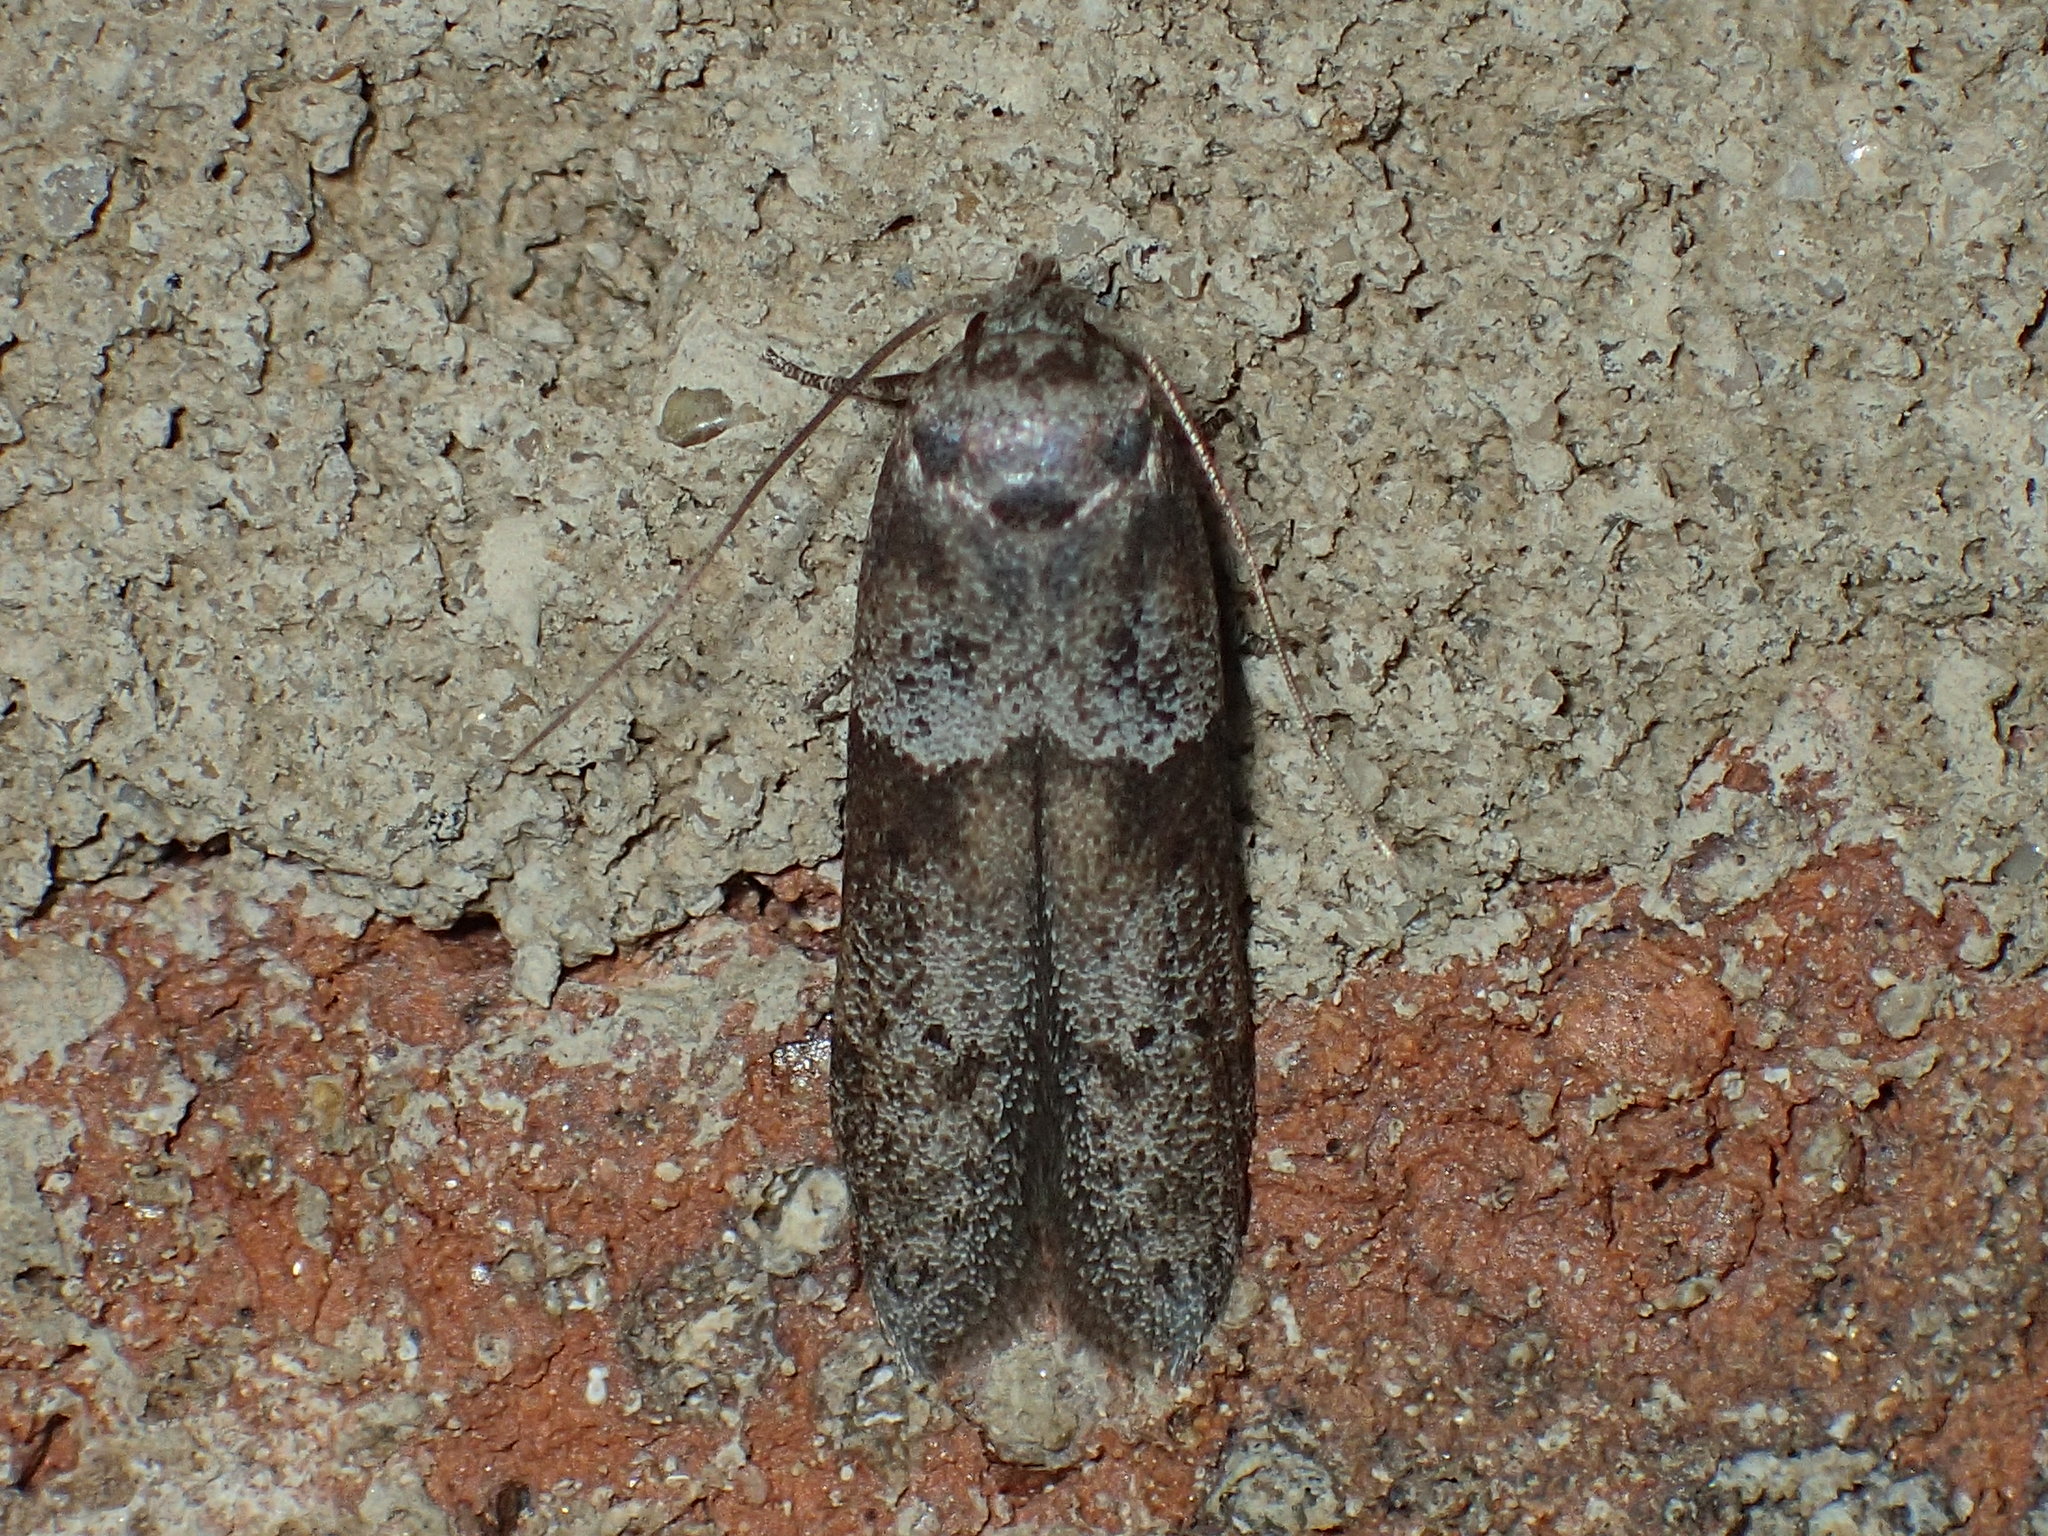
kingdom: Animalia
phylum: Arthropoda
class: Insecta
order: Lepidoptera
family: Blastobasidae
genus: Blastobasis
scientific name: Blastobasis glandulella
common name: Acorn moth
